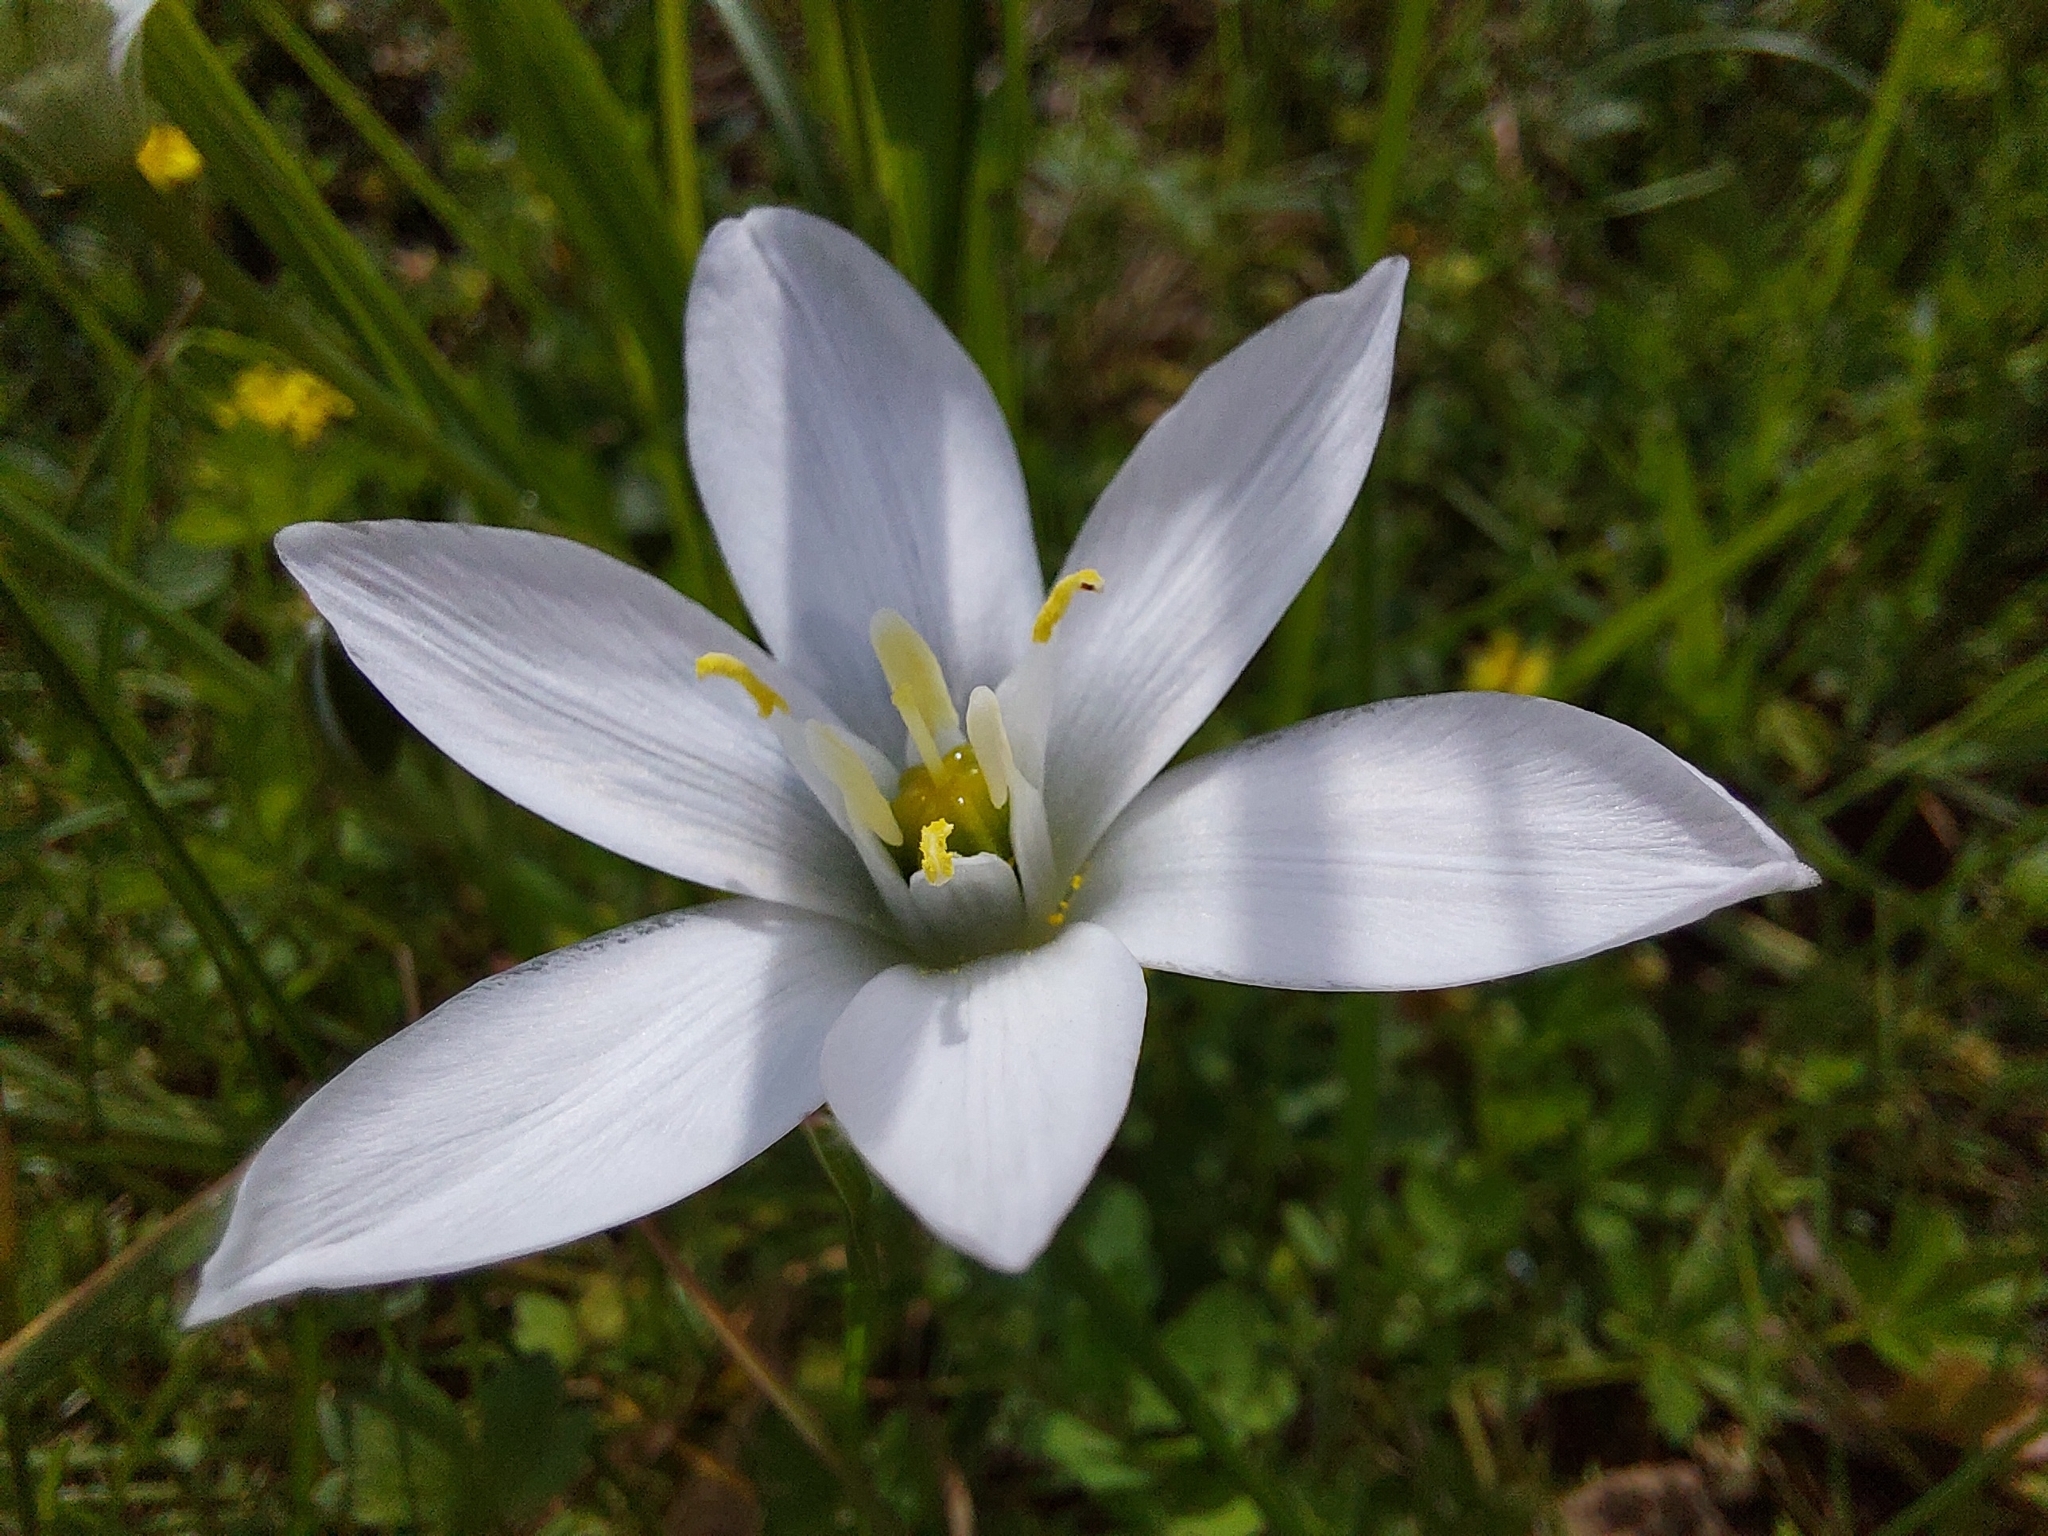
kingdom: Plantae
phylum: Tracheophyta
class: Liliopsida
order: Asparagales
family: Asparagaceae
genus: Ornithogalum
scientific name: Ornithogalum umbellatum
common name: Garden star-of-bethlehem
